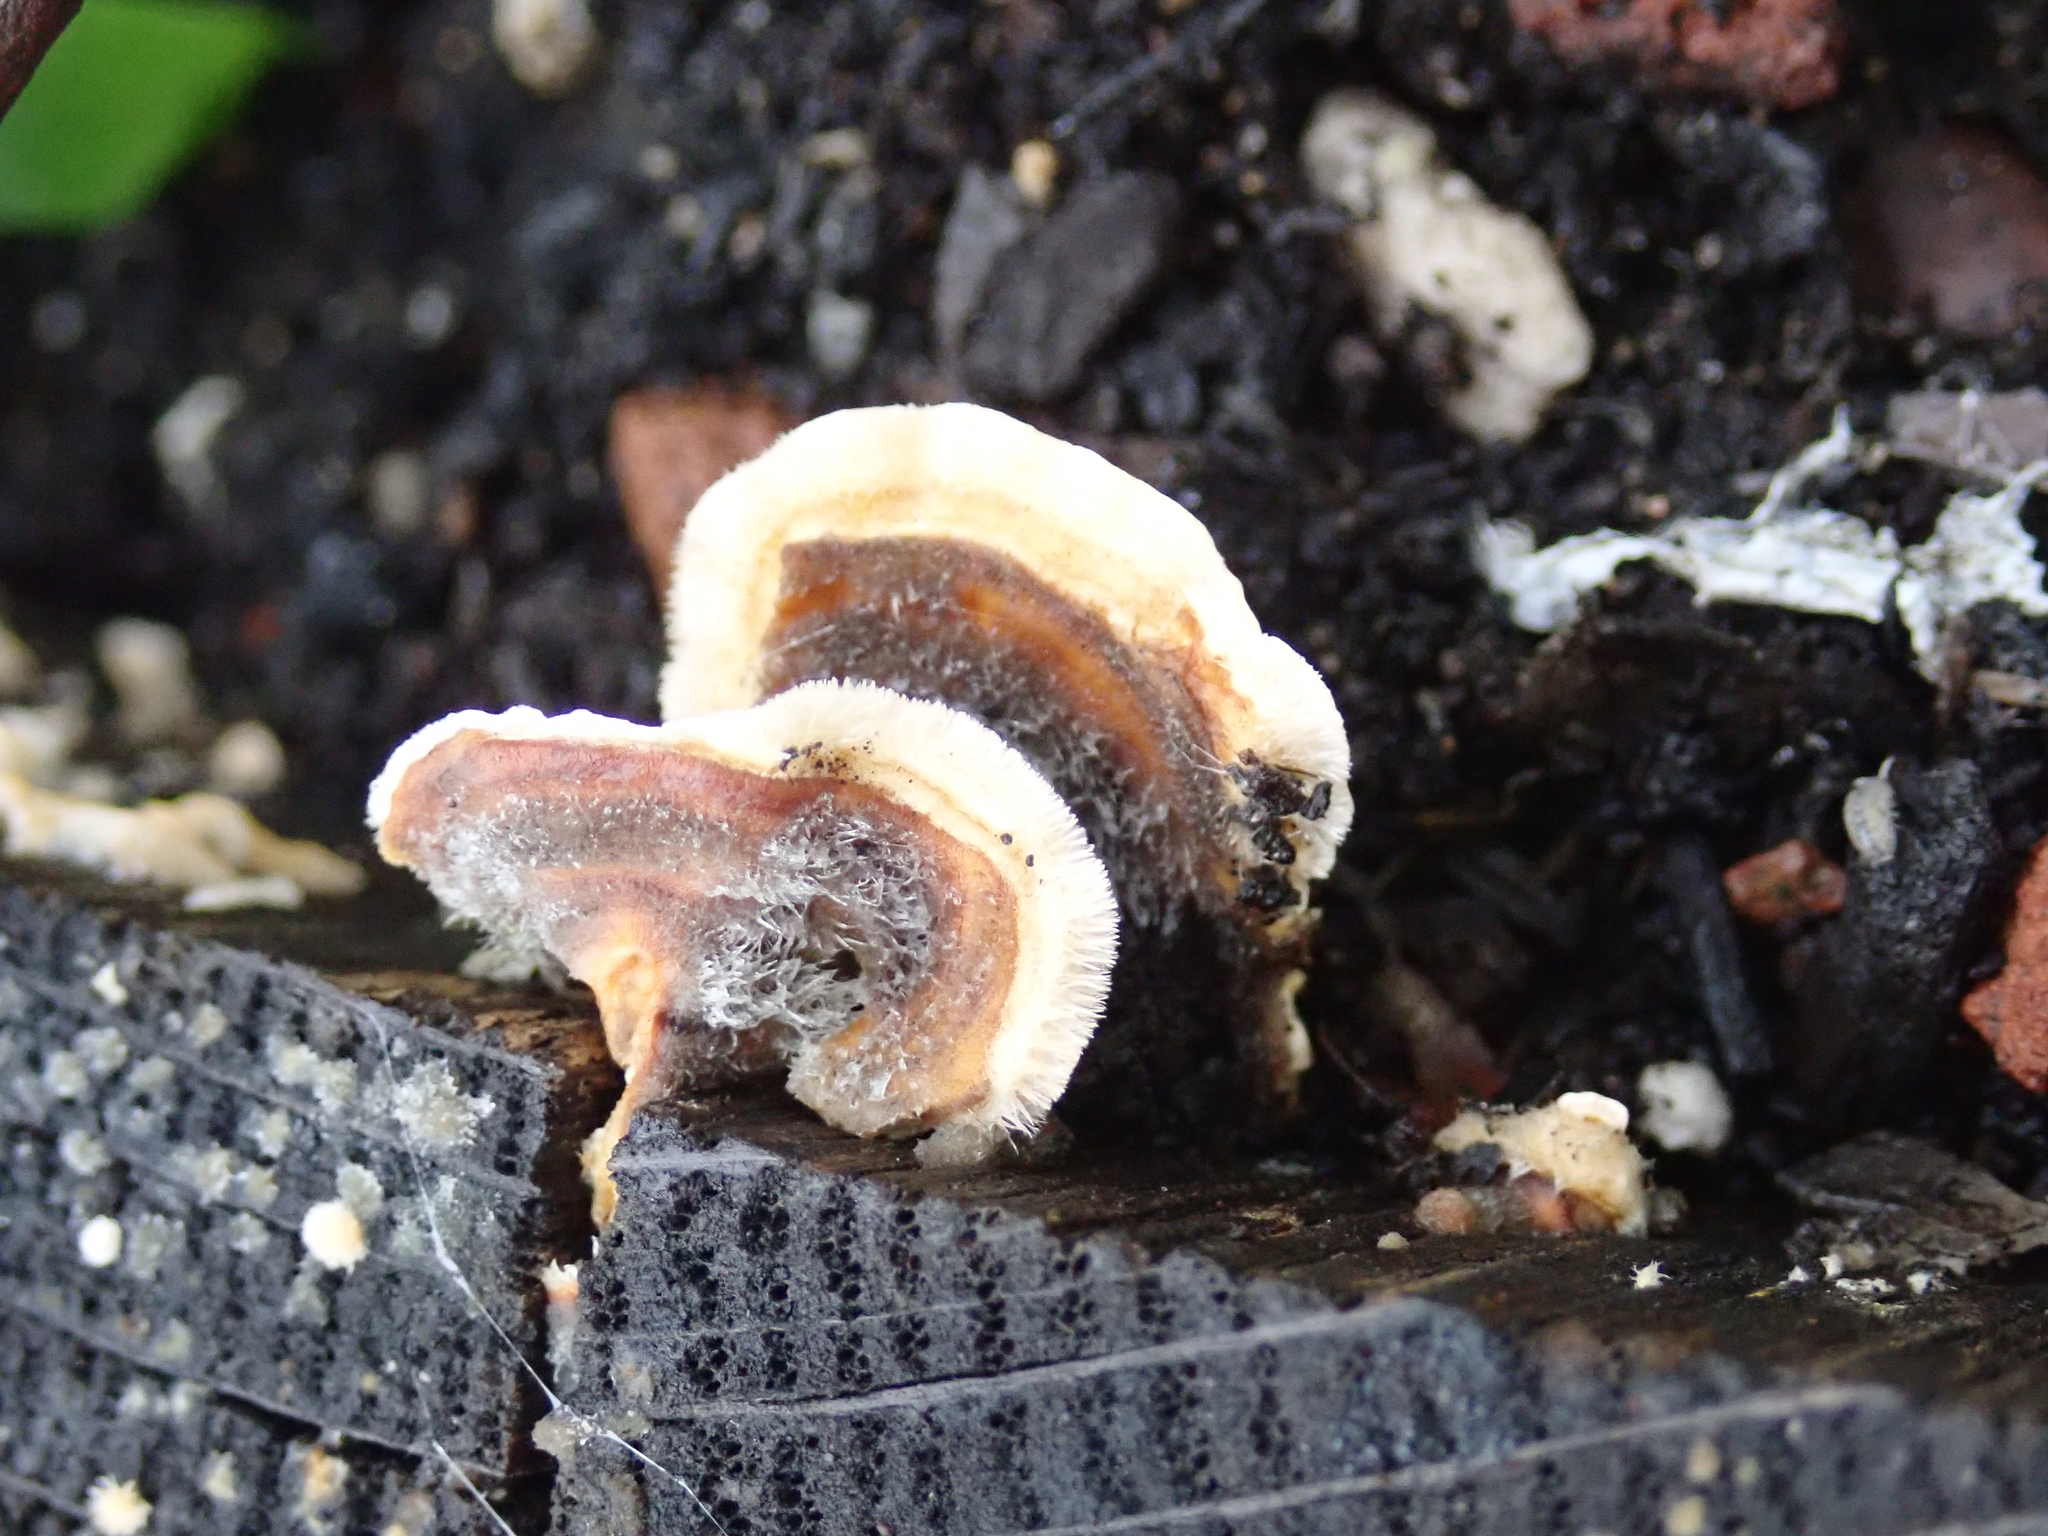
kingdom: Fungi
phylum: Basidiomycota
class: Agaricomycetes
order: Russulales
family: Stereaceae
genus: Stereum
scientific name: Stereum hirsutum
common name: Hairy curtain crust
